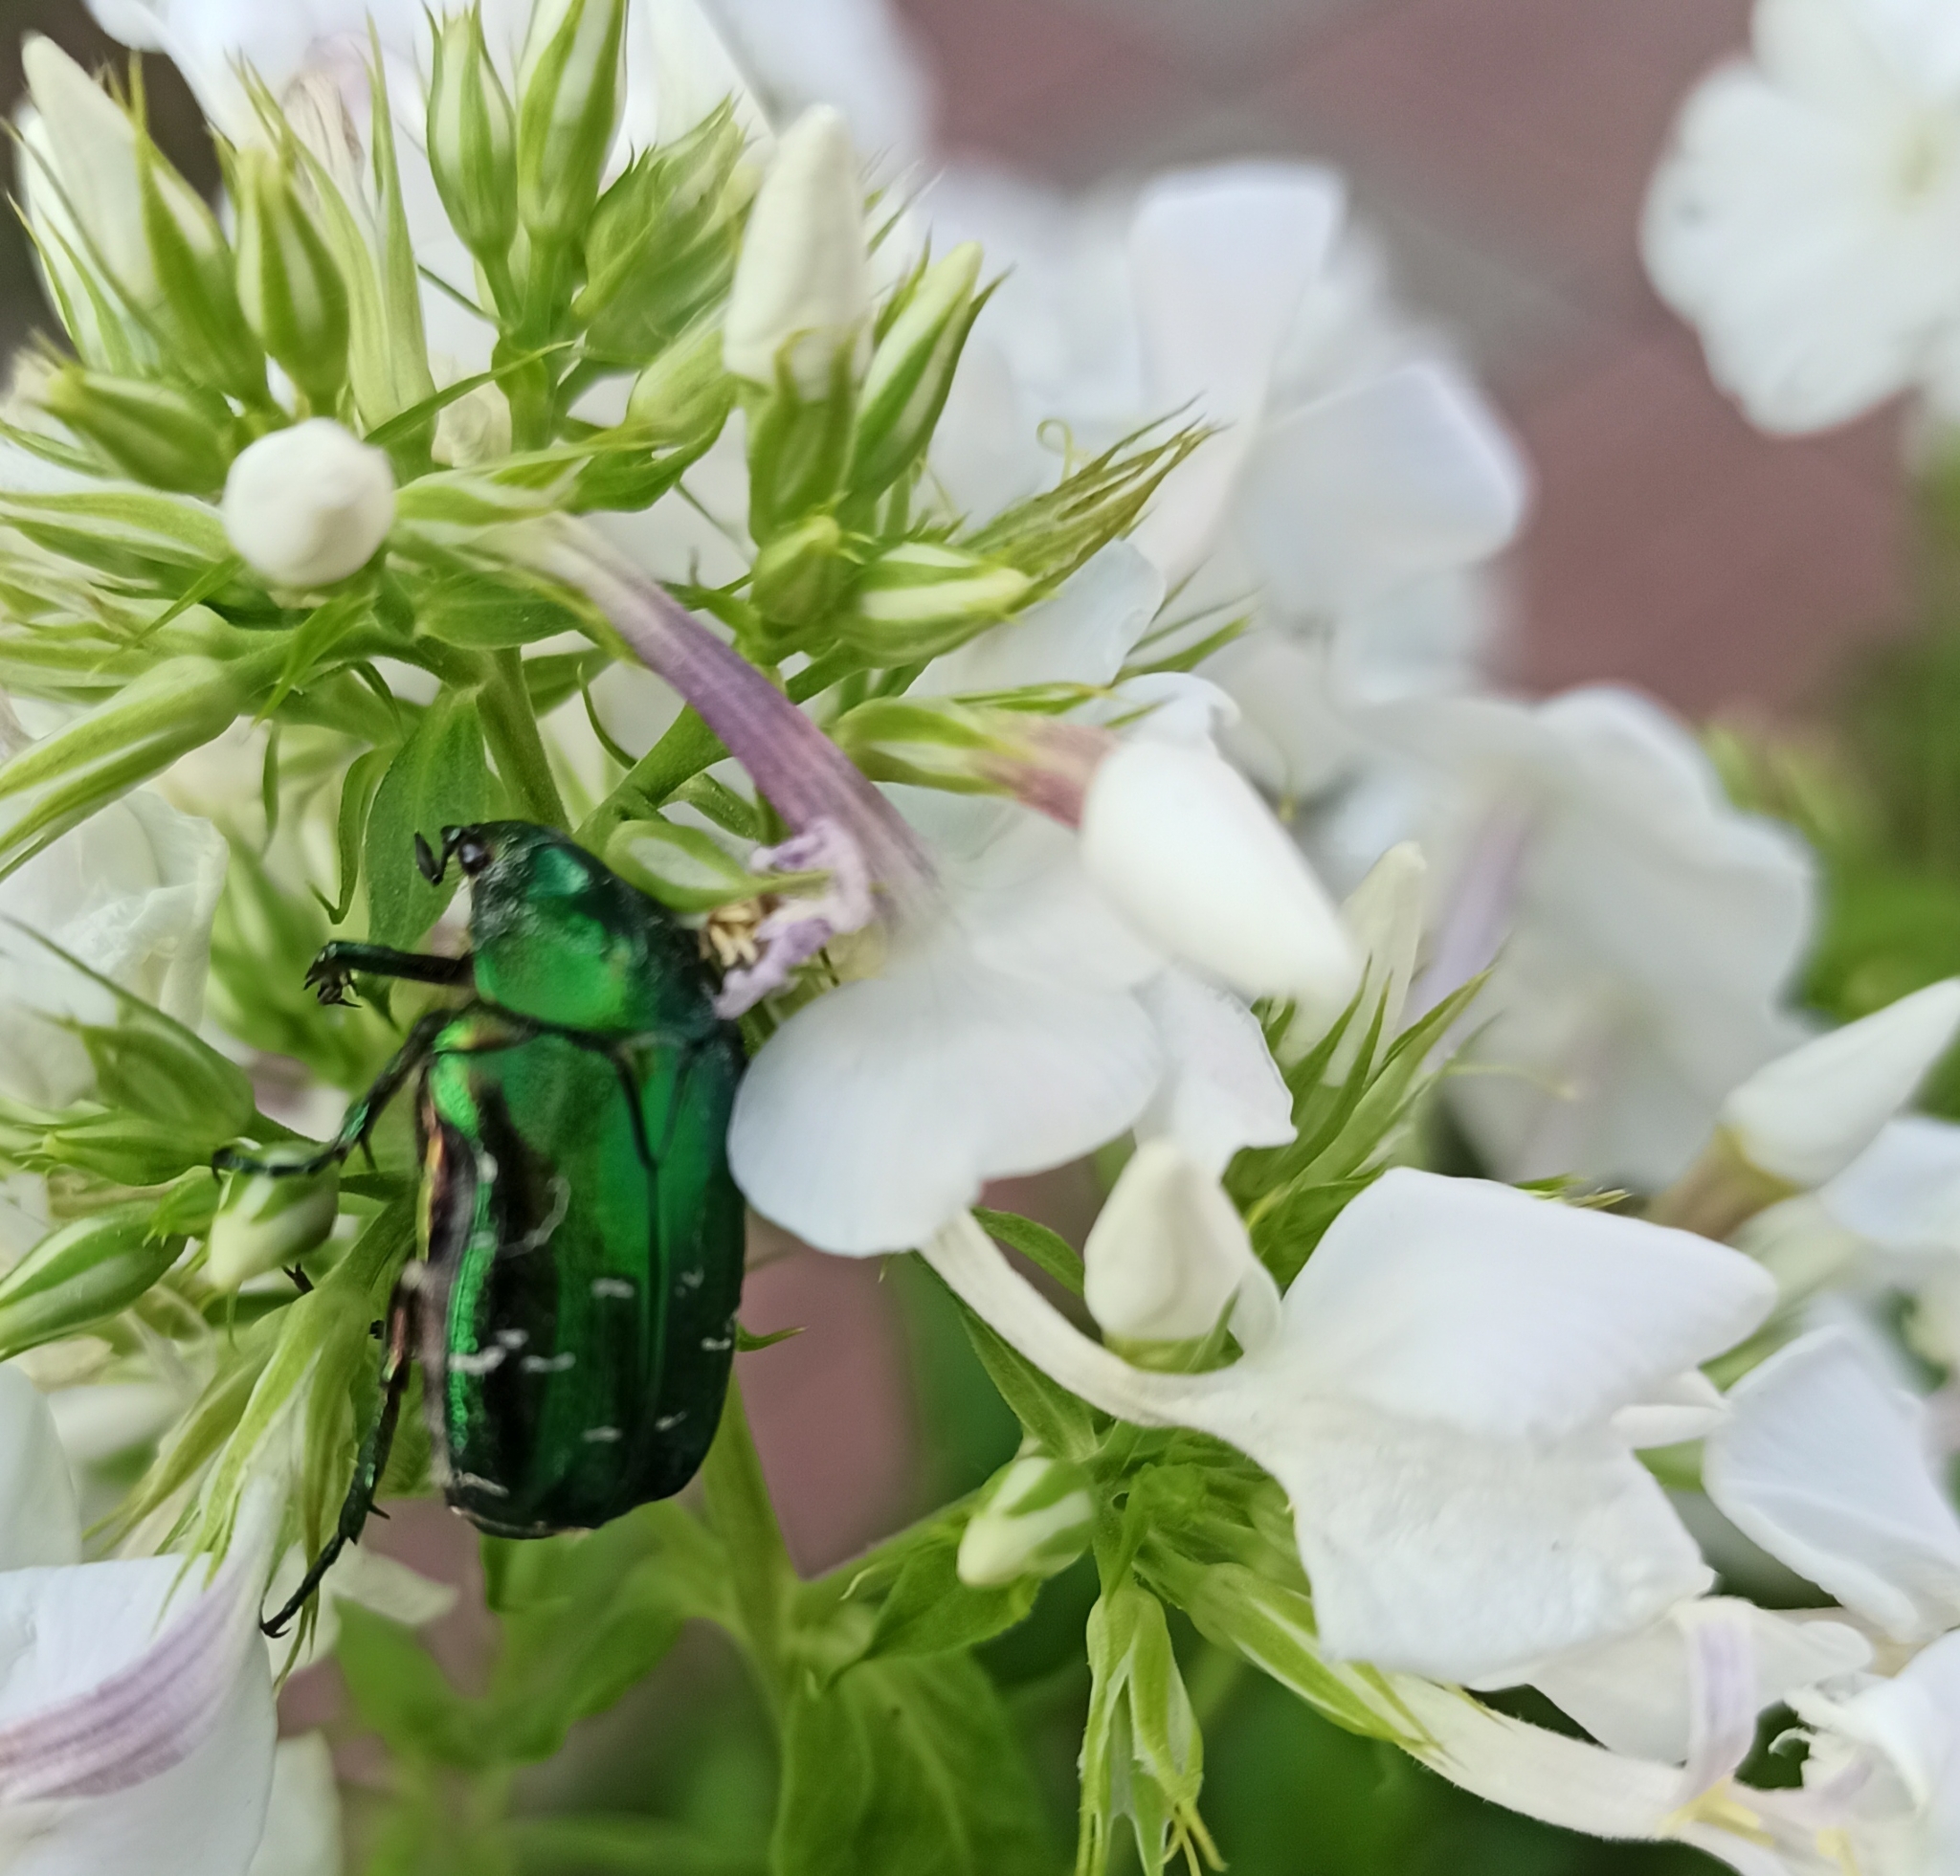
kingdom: Animalia
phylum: Arthropoda
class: Insecta
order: Coleoptera
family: Scarabaeidae
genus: Cetonia
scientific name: Cetonia aurata
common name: Rose chafer
